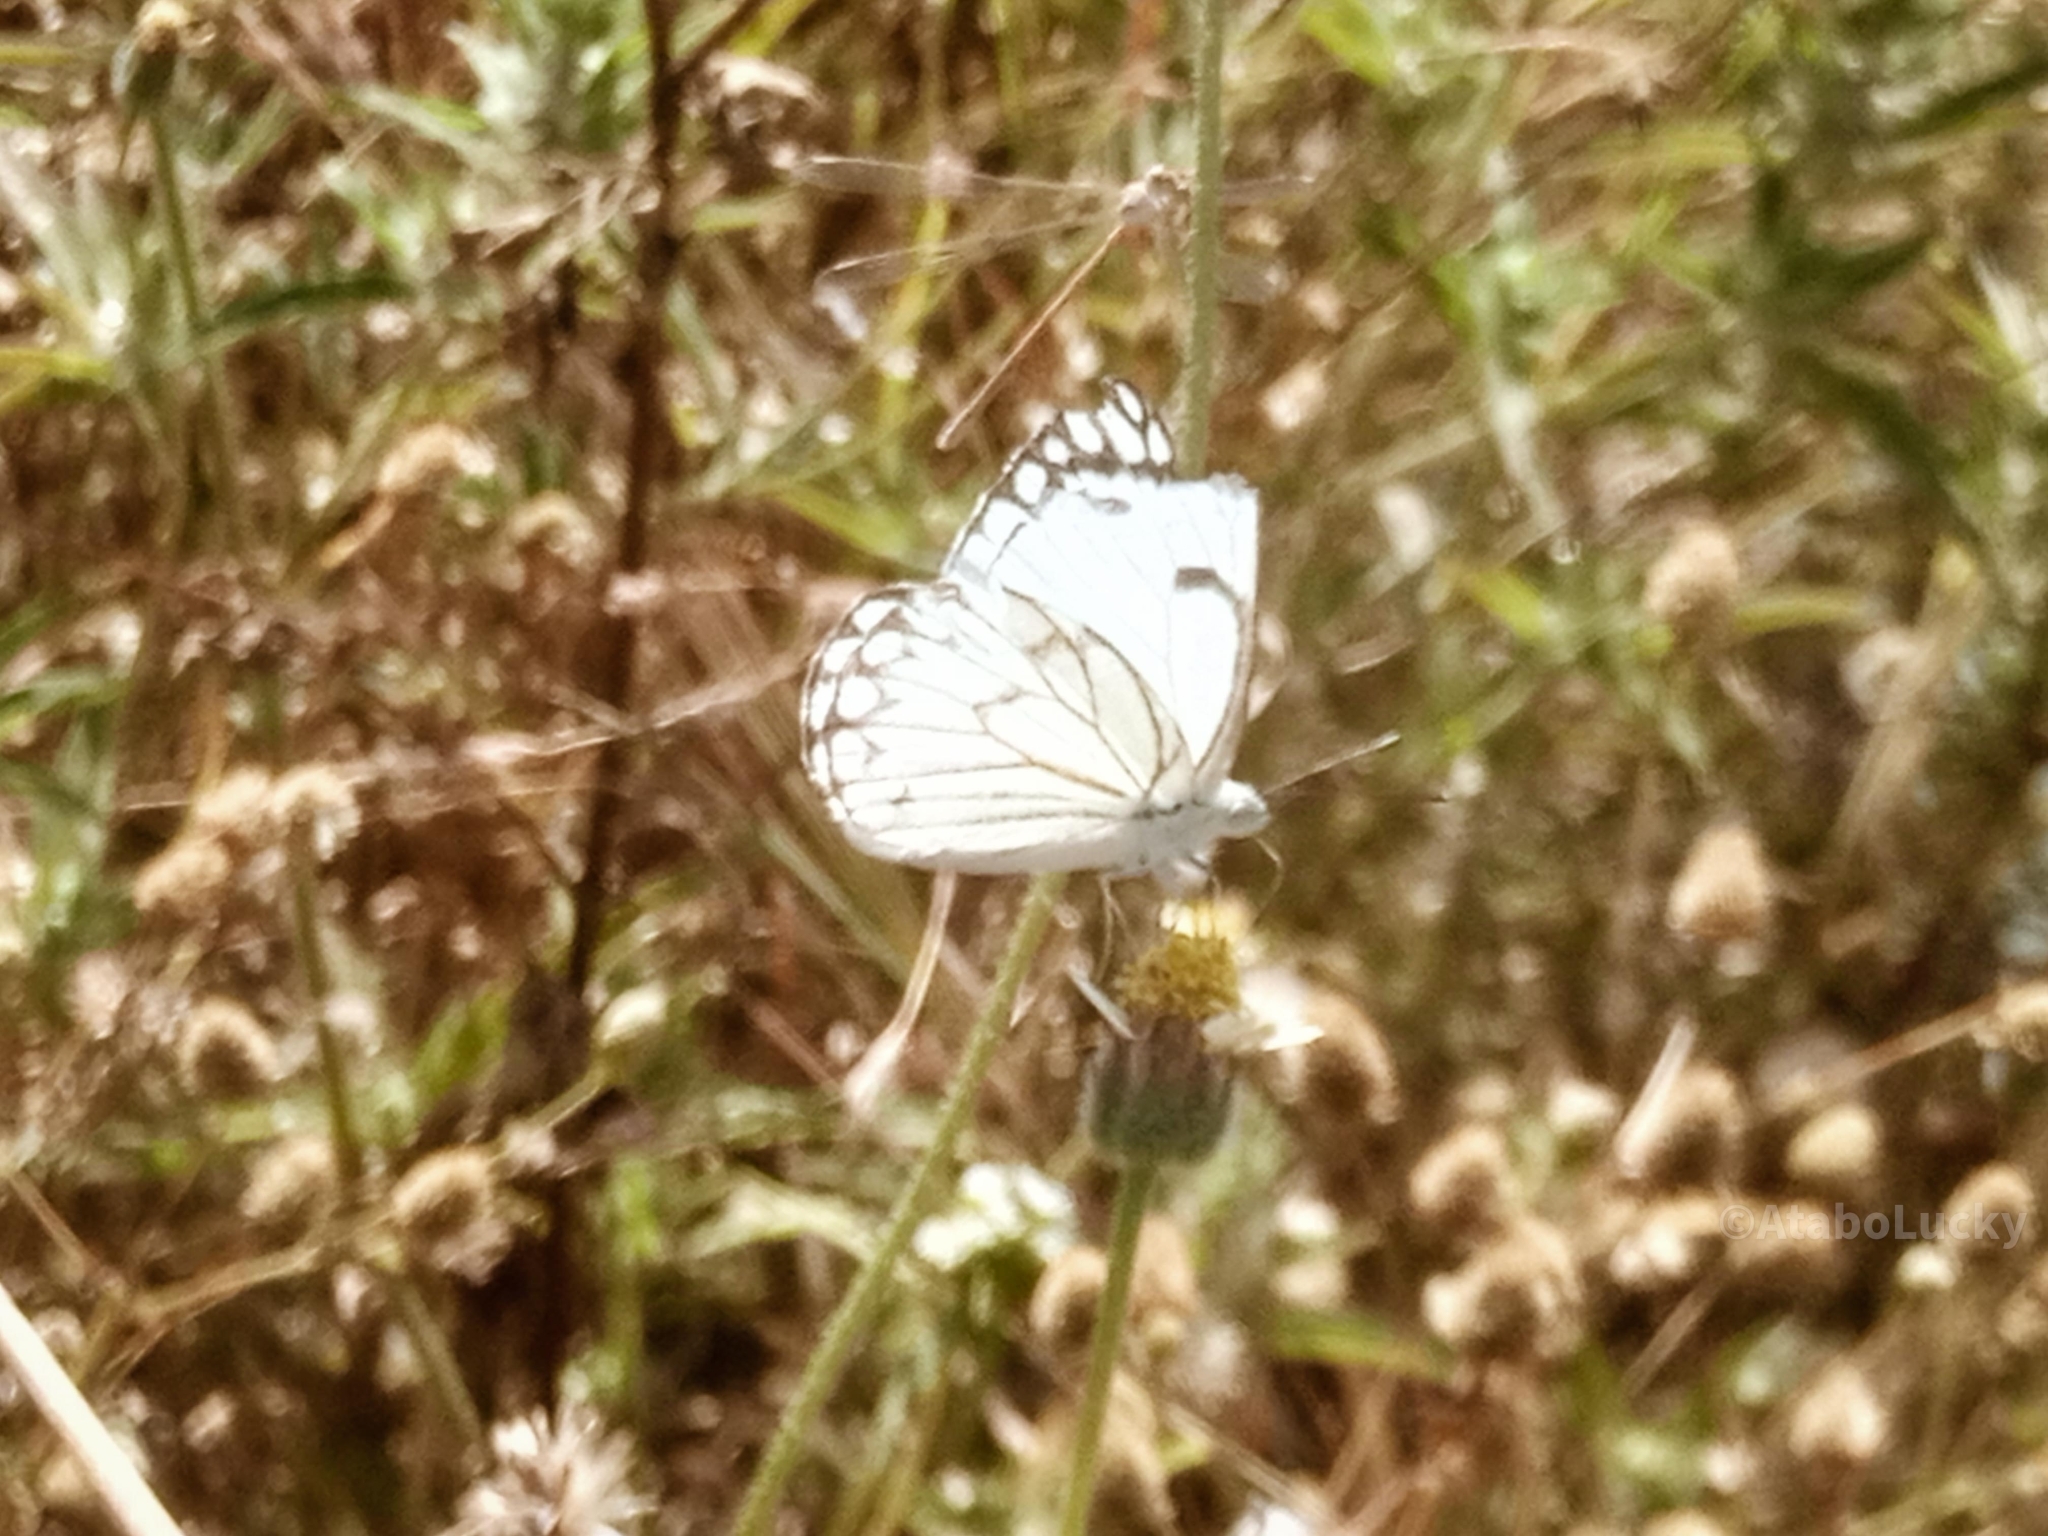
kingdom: Animalia
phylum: Arthropoda
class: Insecta
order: Lepidoptera
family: Pieridae
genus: Belenois
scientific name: Belenois aurota
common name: Brown-veined white
